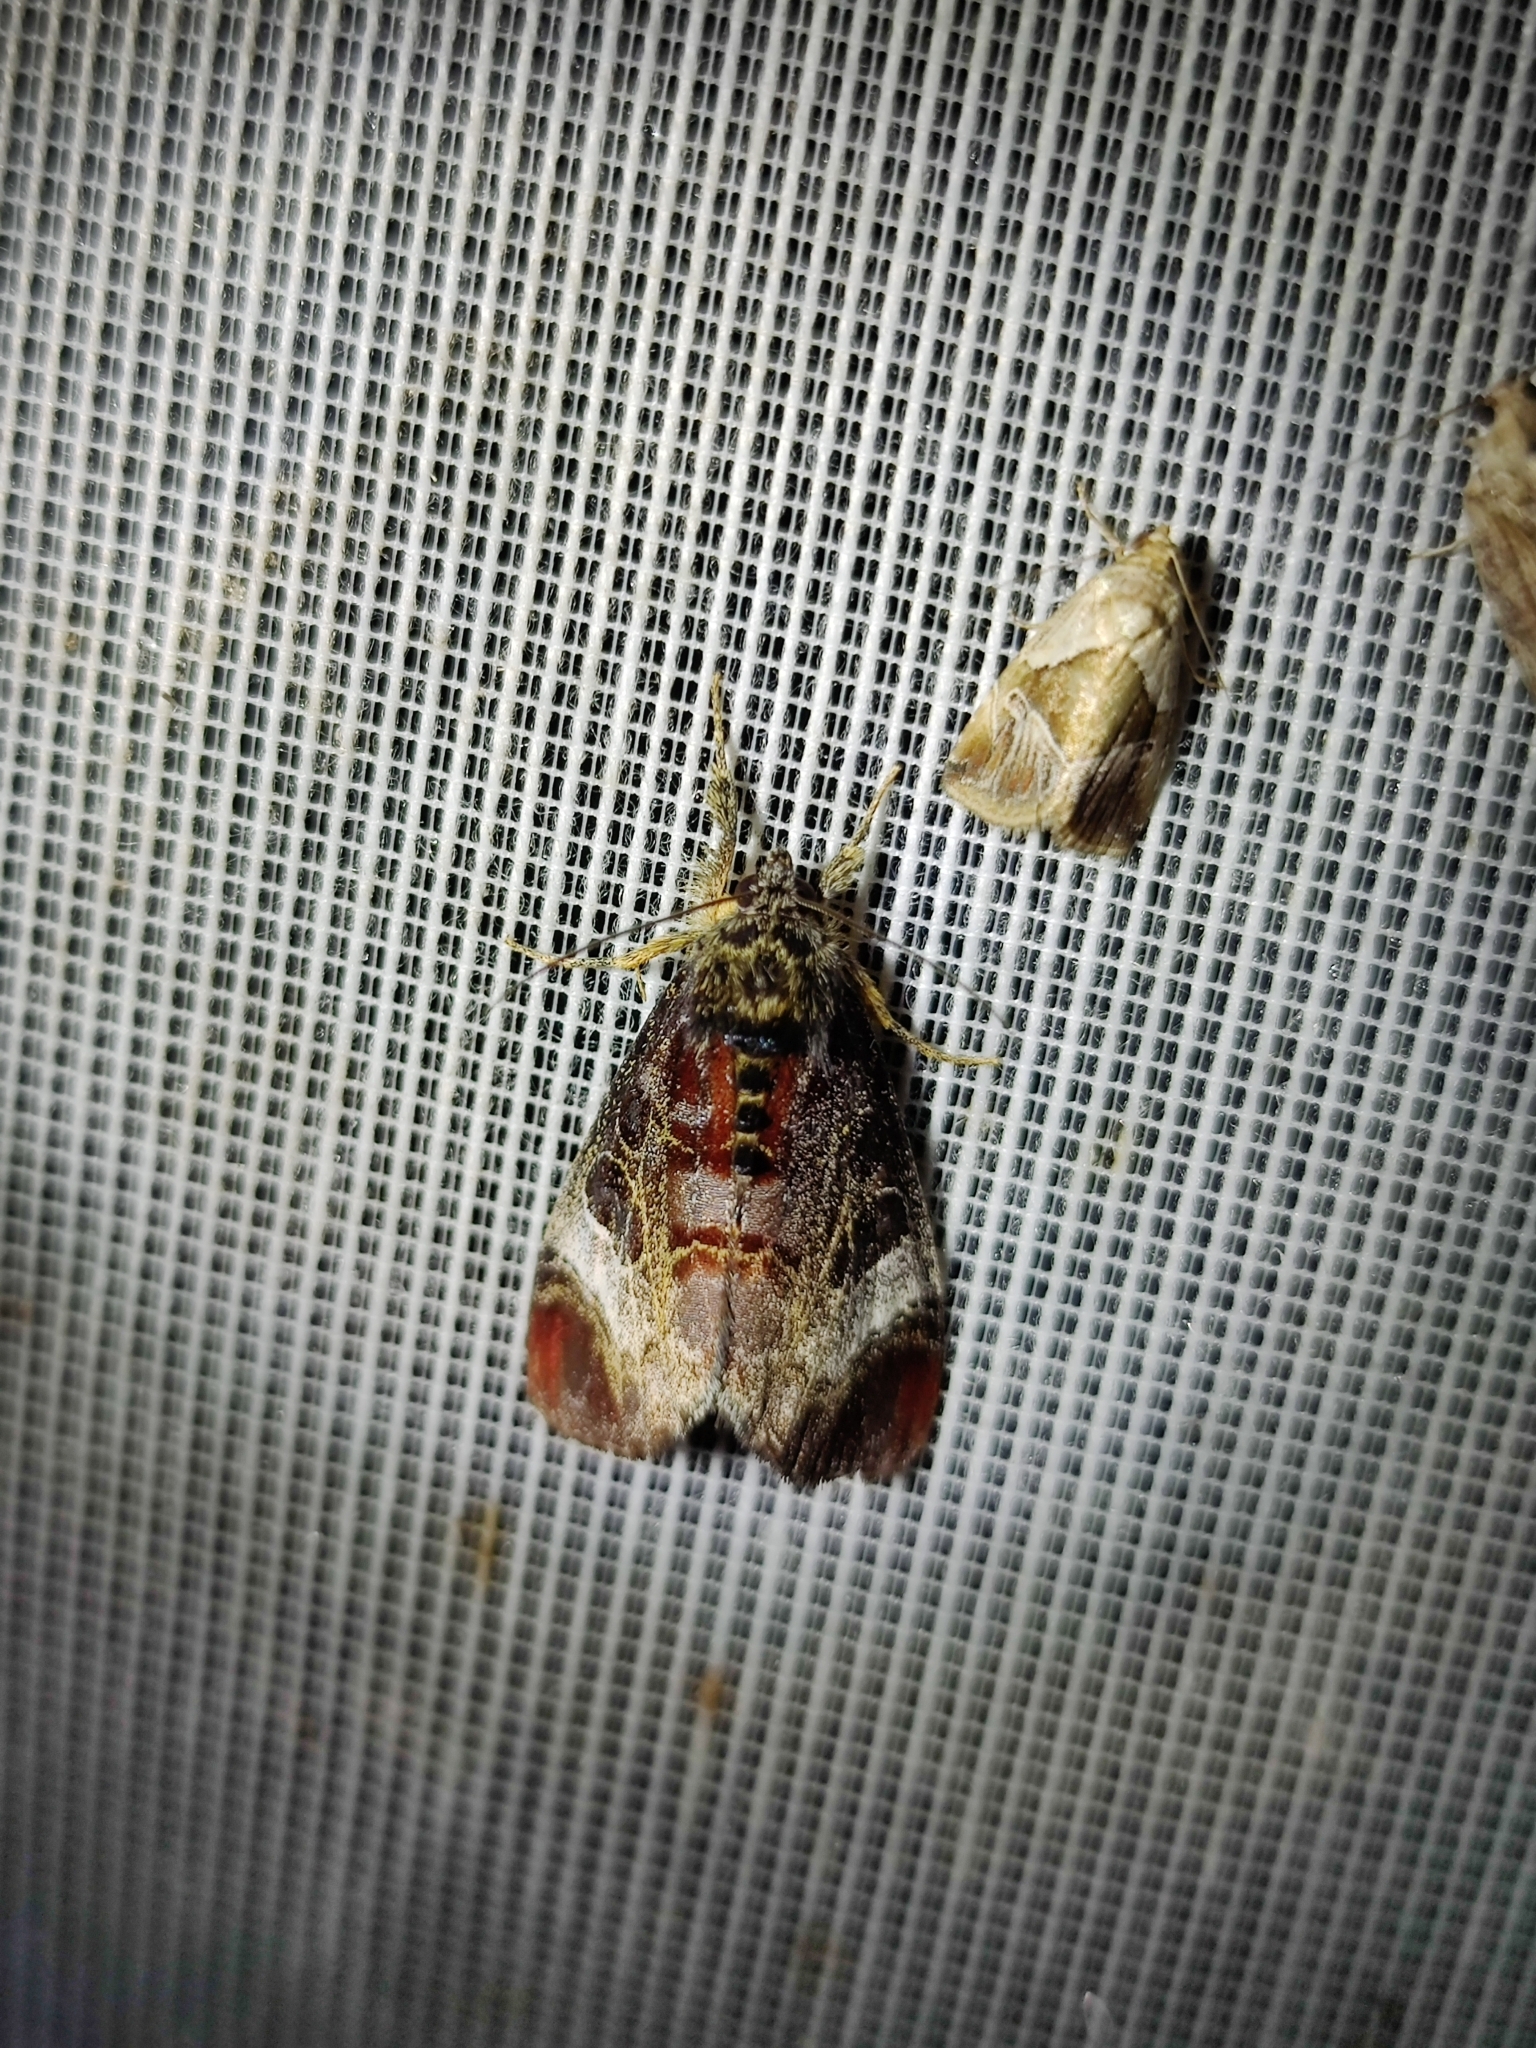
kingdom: Animalia
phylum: Arthropoda
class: Insecta
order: Lepidoptera
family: Noctuidae
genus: Maliattha
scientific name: Maliattha separata
